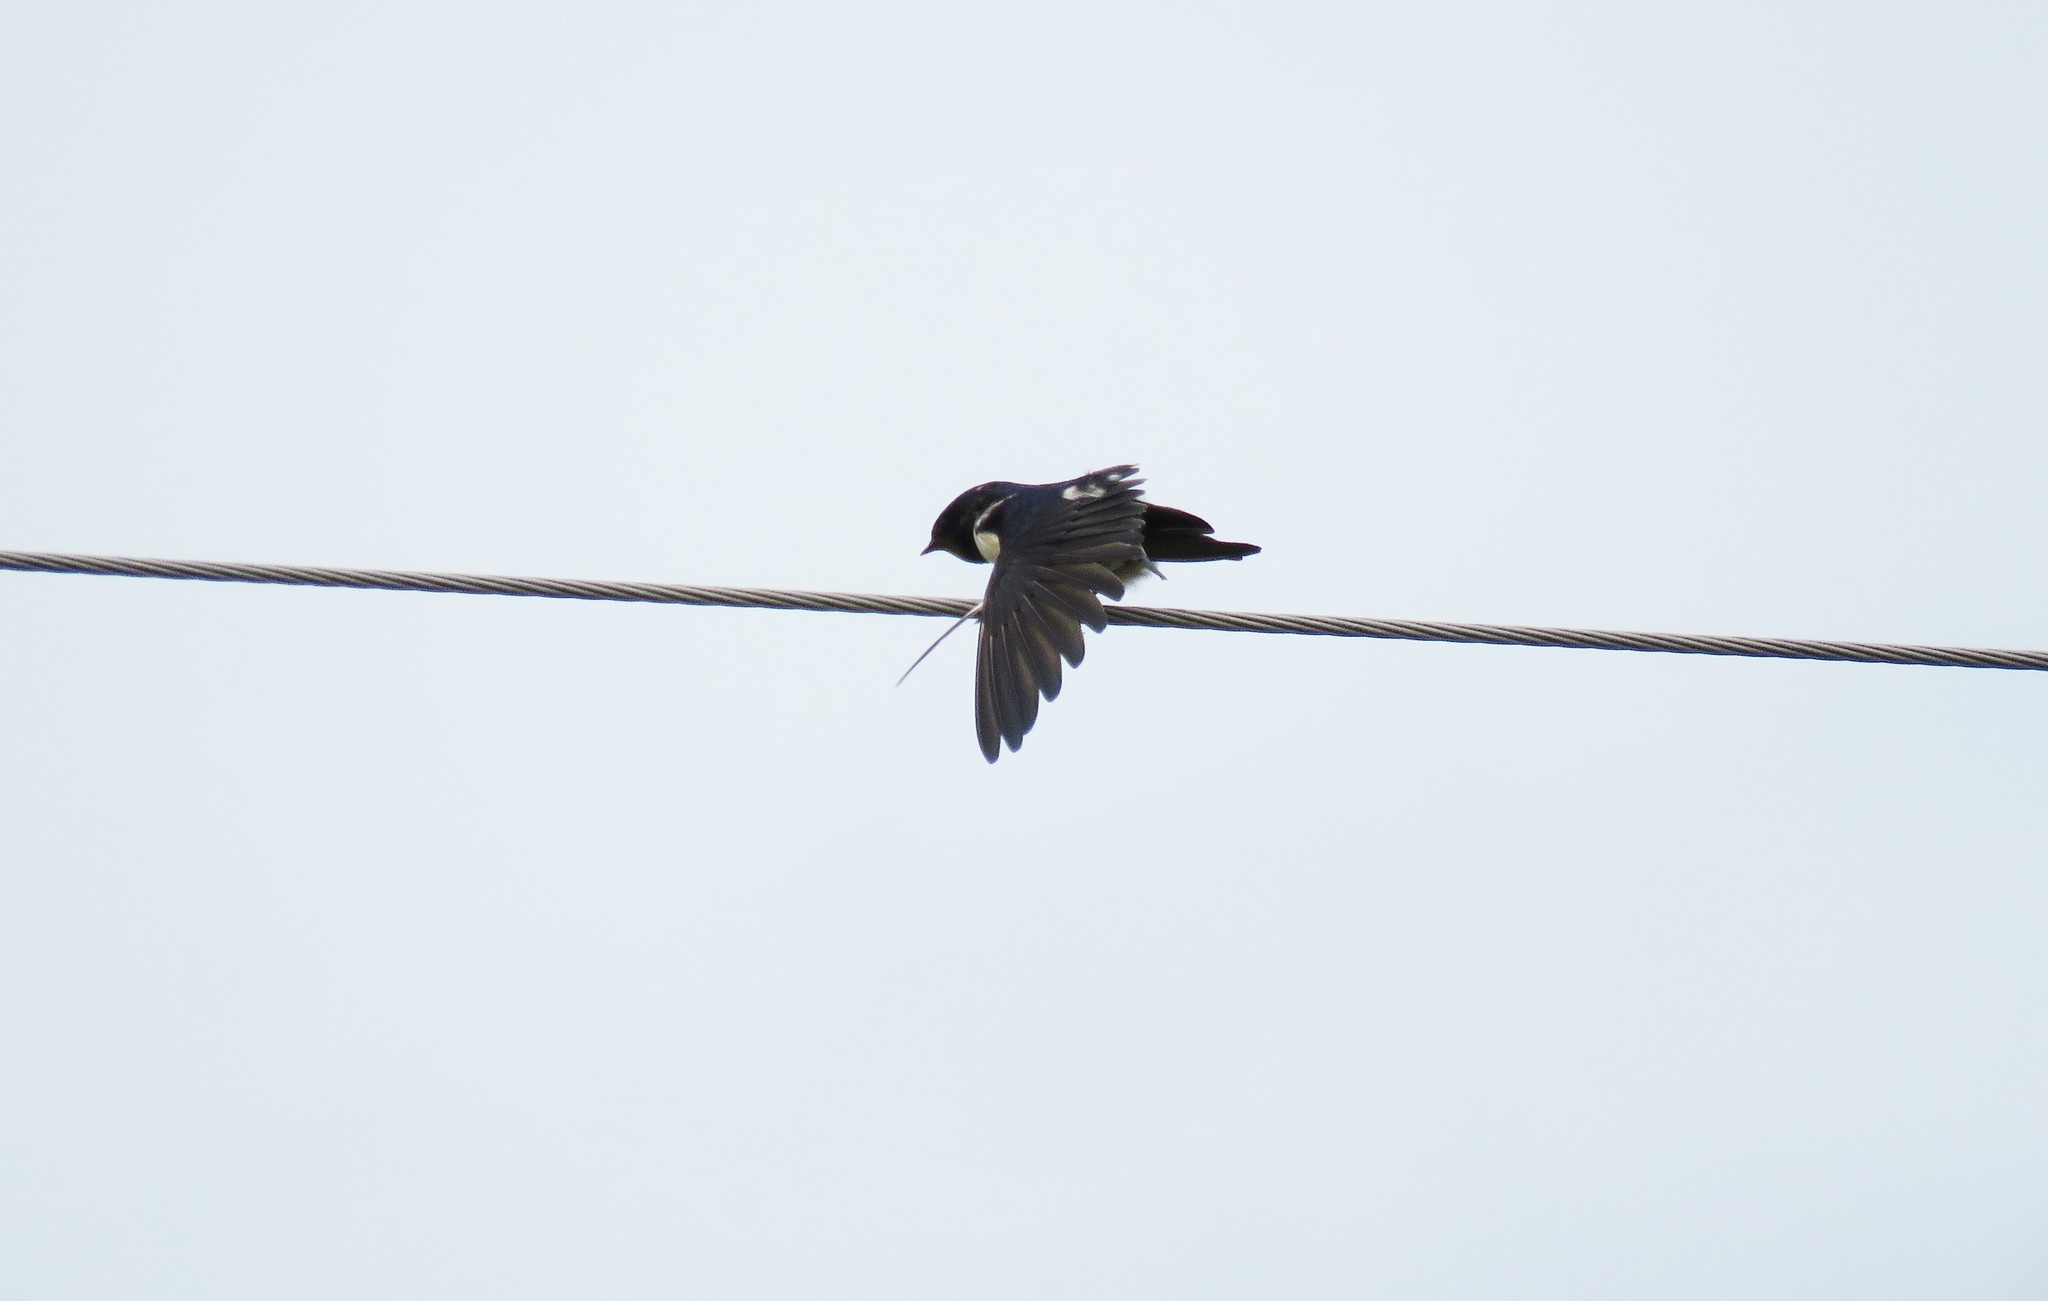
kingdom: Animalia
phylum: Chordata
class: Aves
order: Passeriformes
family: Hirundinidae
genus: Hirundo
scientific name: Hirundo rustica
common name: Barn swallow
